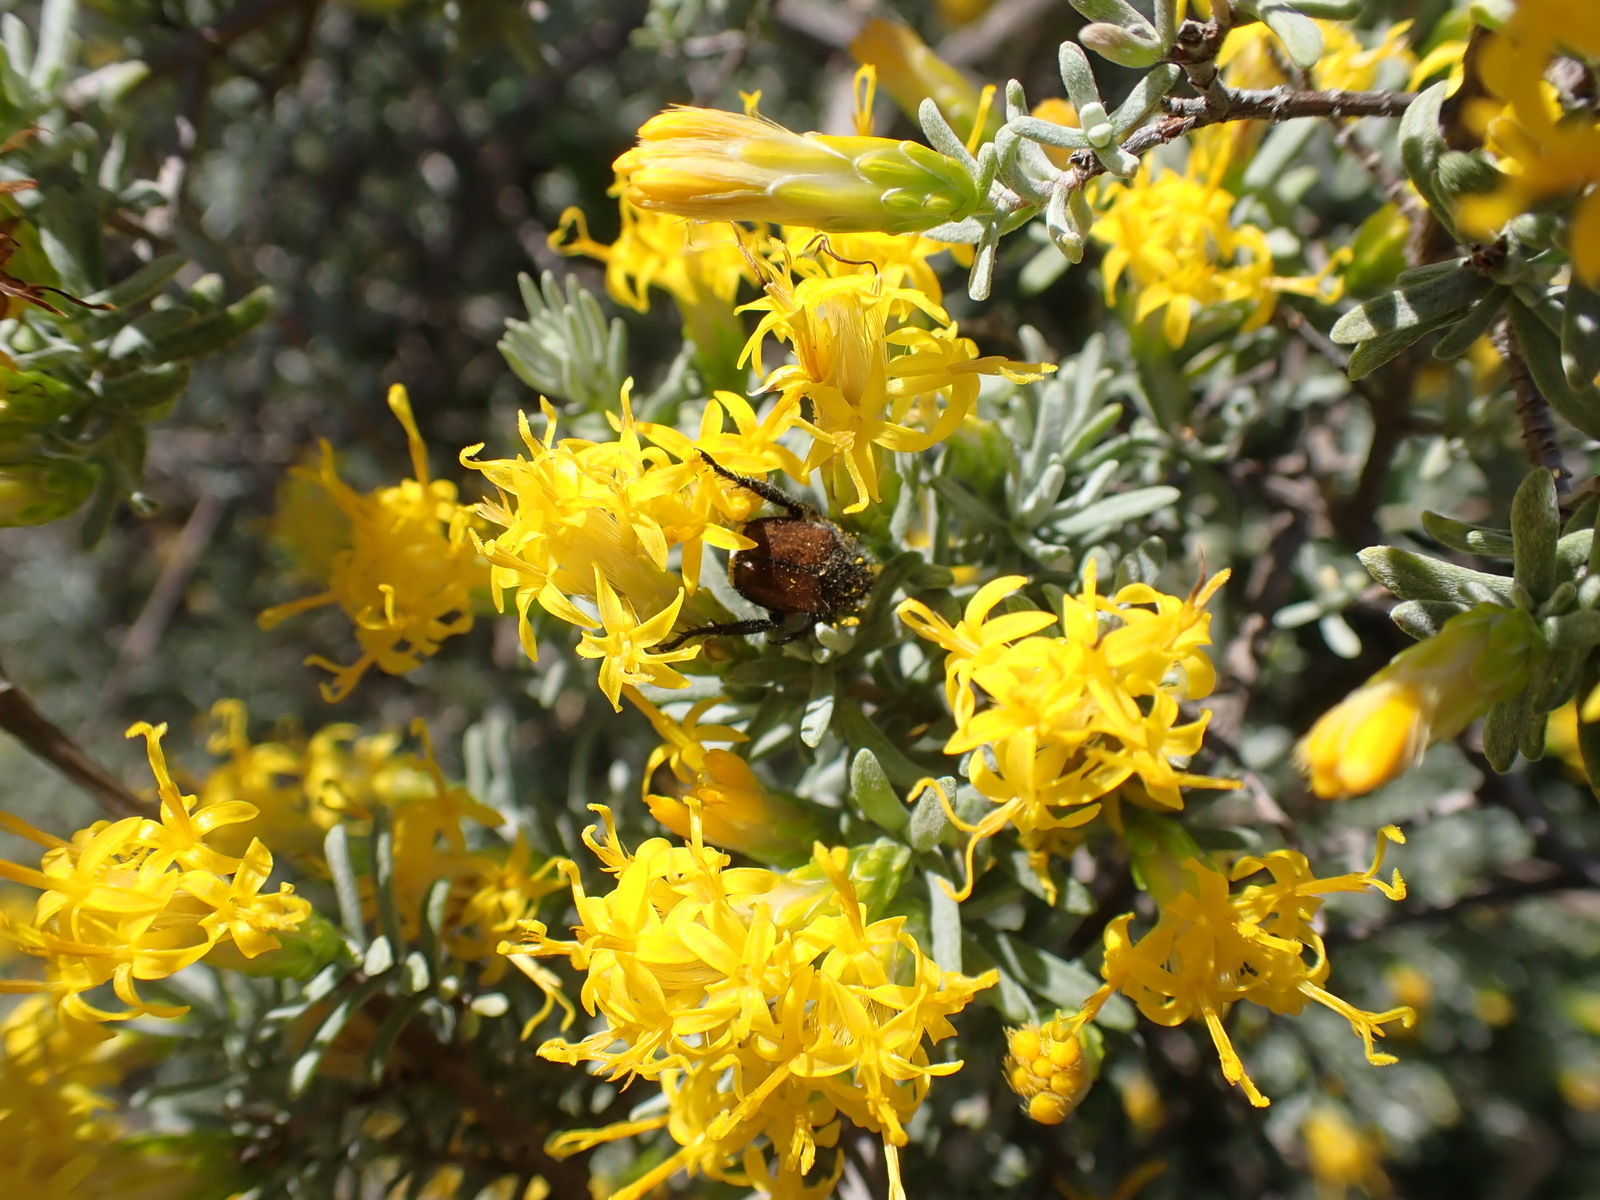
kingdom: Plantae
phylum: Tracheophyta
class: Magnoliopsida
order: Asterales
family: Asteraceae
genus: Pteronia
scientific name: Pteronia incana
